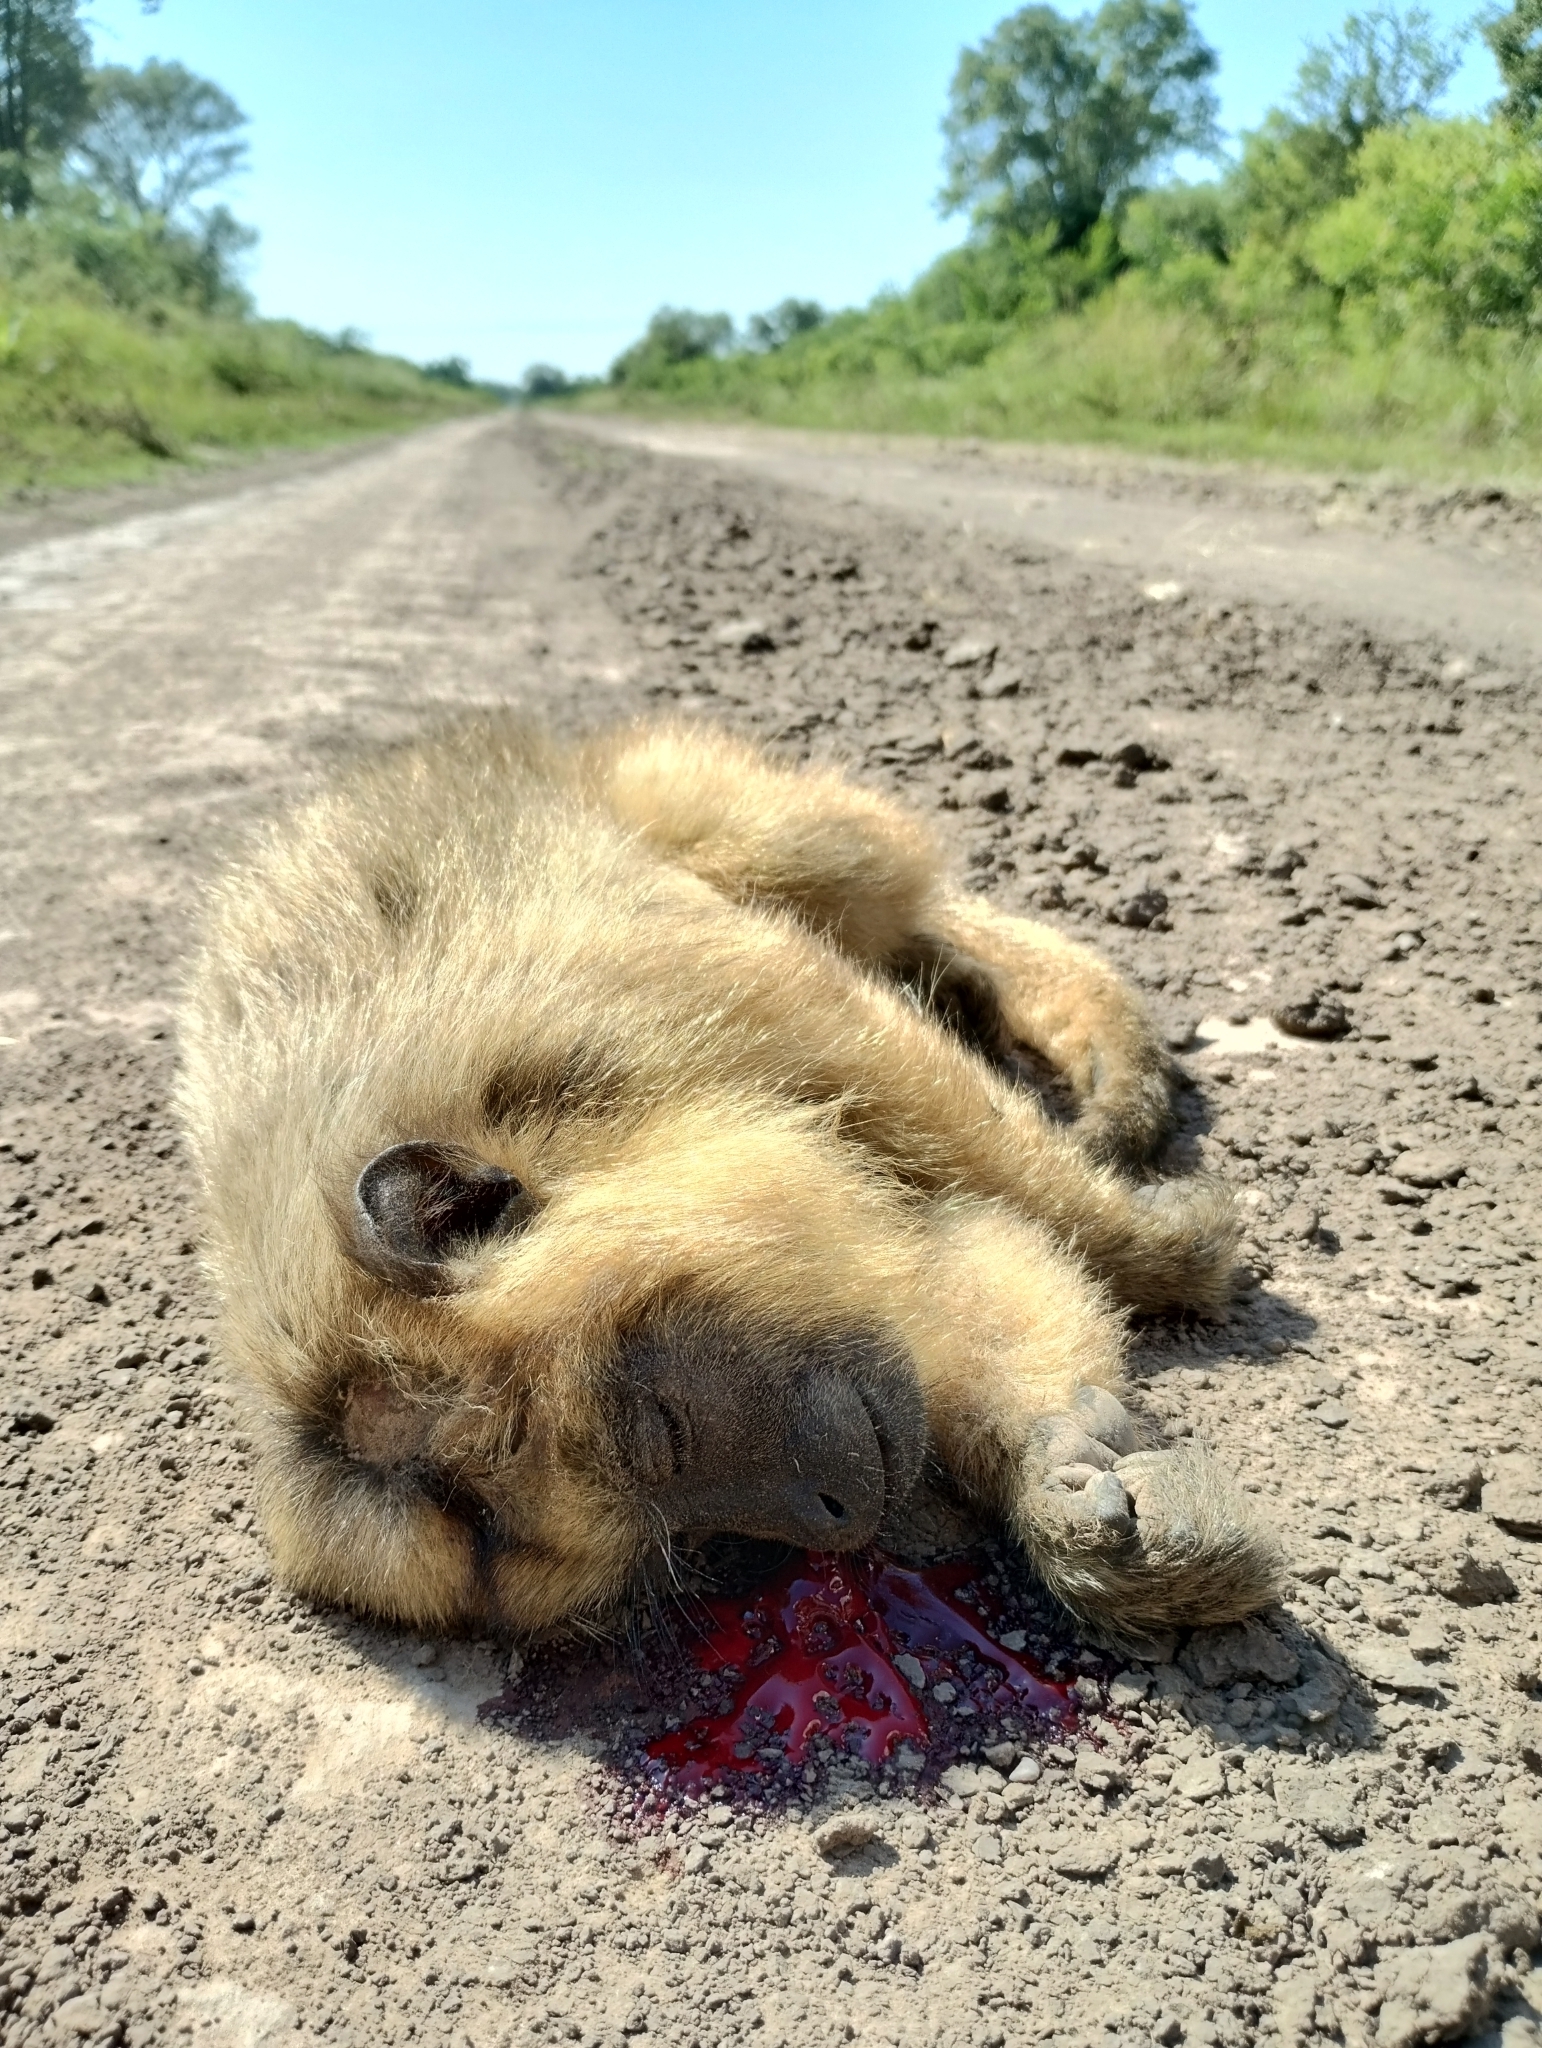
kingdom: Animalia
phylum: Chordata
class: Mammalia
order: Primates
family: Atelidae
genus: Alouatta
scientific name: Alouatta caraya
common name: Black howler
